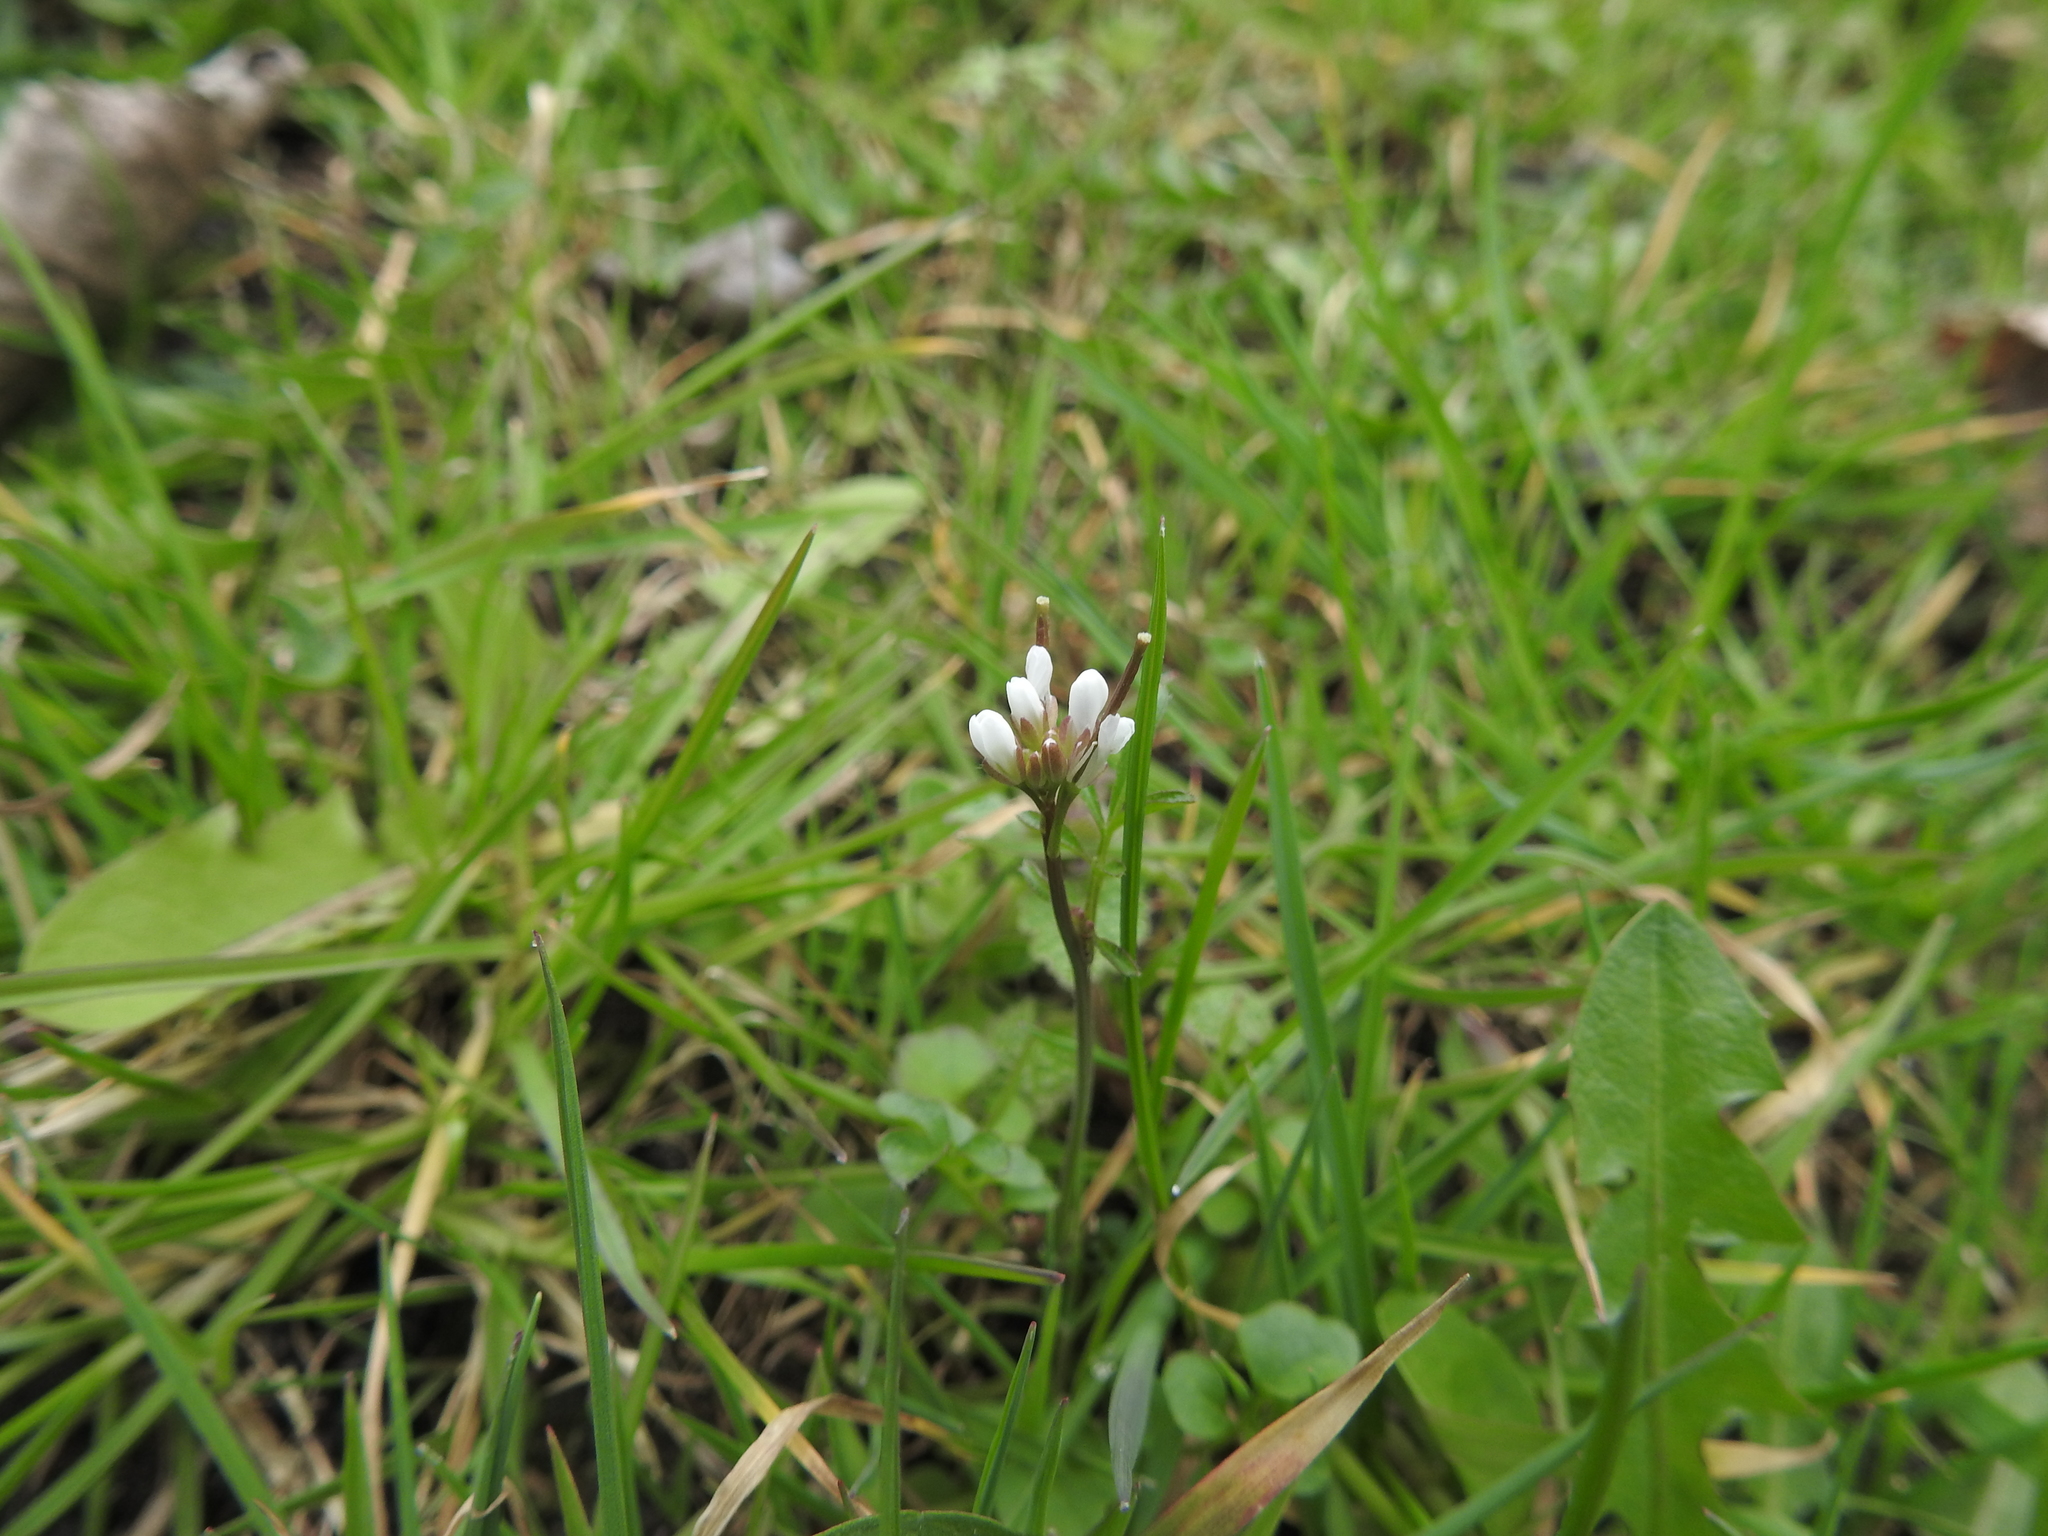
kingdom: Plantae
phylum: Tracheophyta
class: Magnoliopsida
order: Brassicales
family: Brassicaceae
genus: Cardamine
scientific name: Cardamine hirsuta
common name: Hairy bittercress
